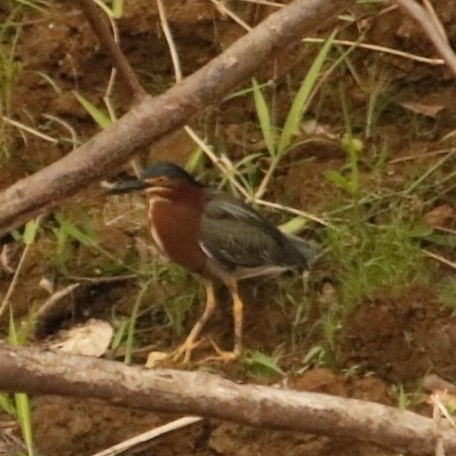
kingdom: Animalia
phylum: Chordata
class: Aves
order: Pelecaniformes
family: Ardeidae
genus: Butorides
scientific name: Butorides virescens
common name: Green heron
